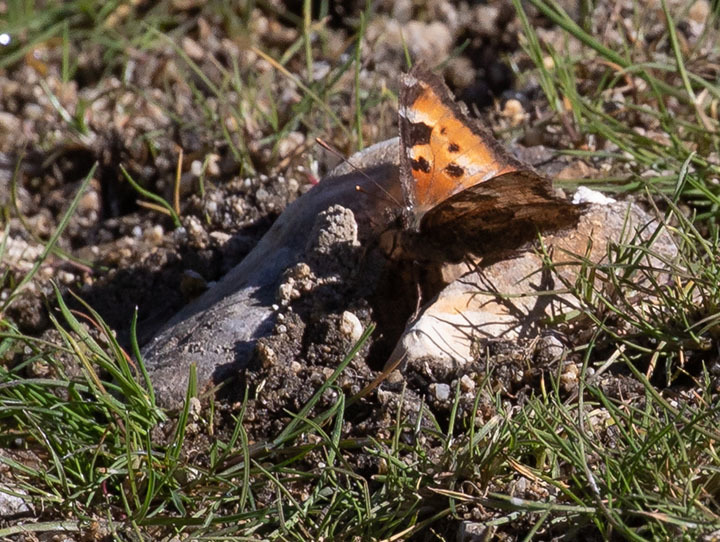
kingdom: Animalia
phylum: Arthropoda
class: Insecta
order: Lepidoptera
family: Nymphalidae
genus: Nymphalis
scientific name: Nymphalis californica
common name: California tortoiseshell
